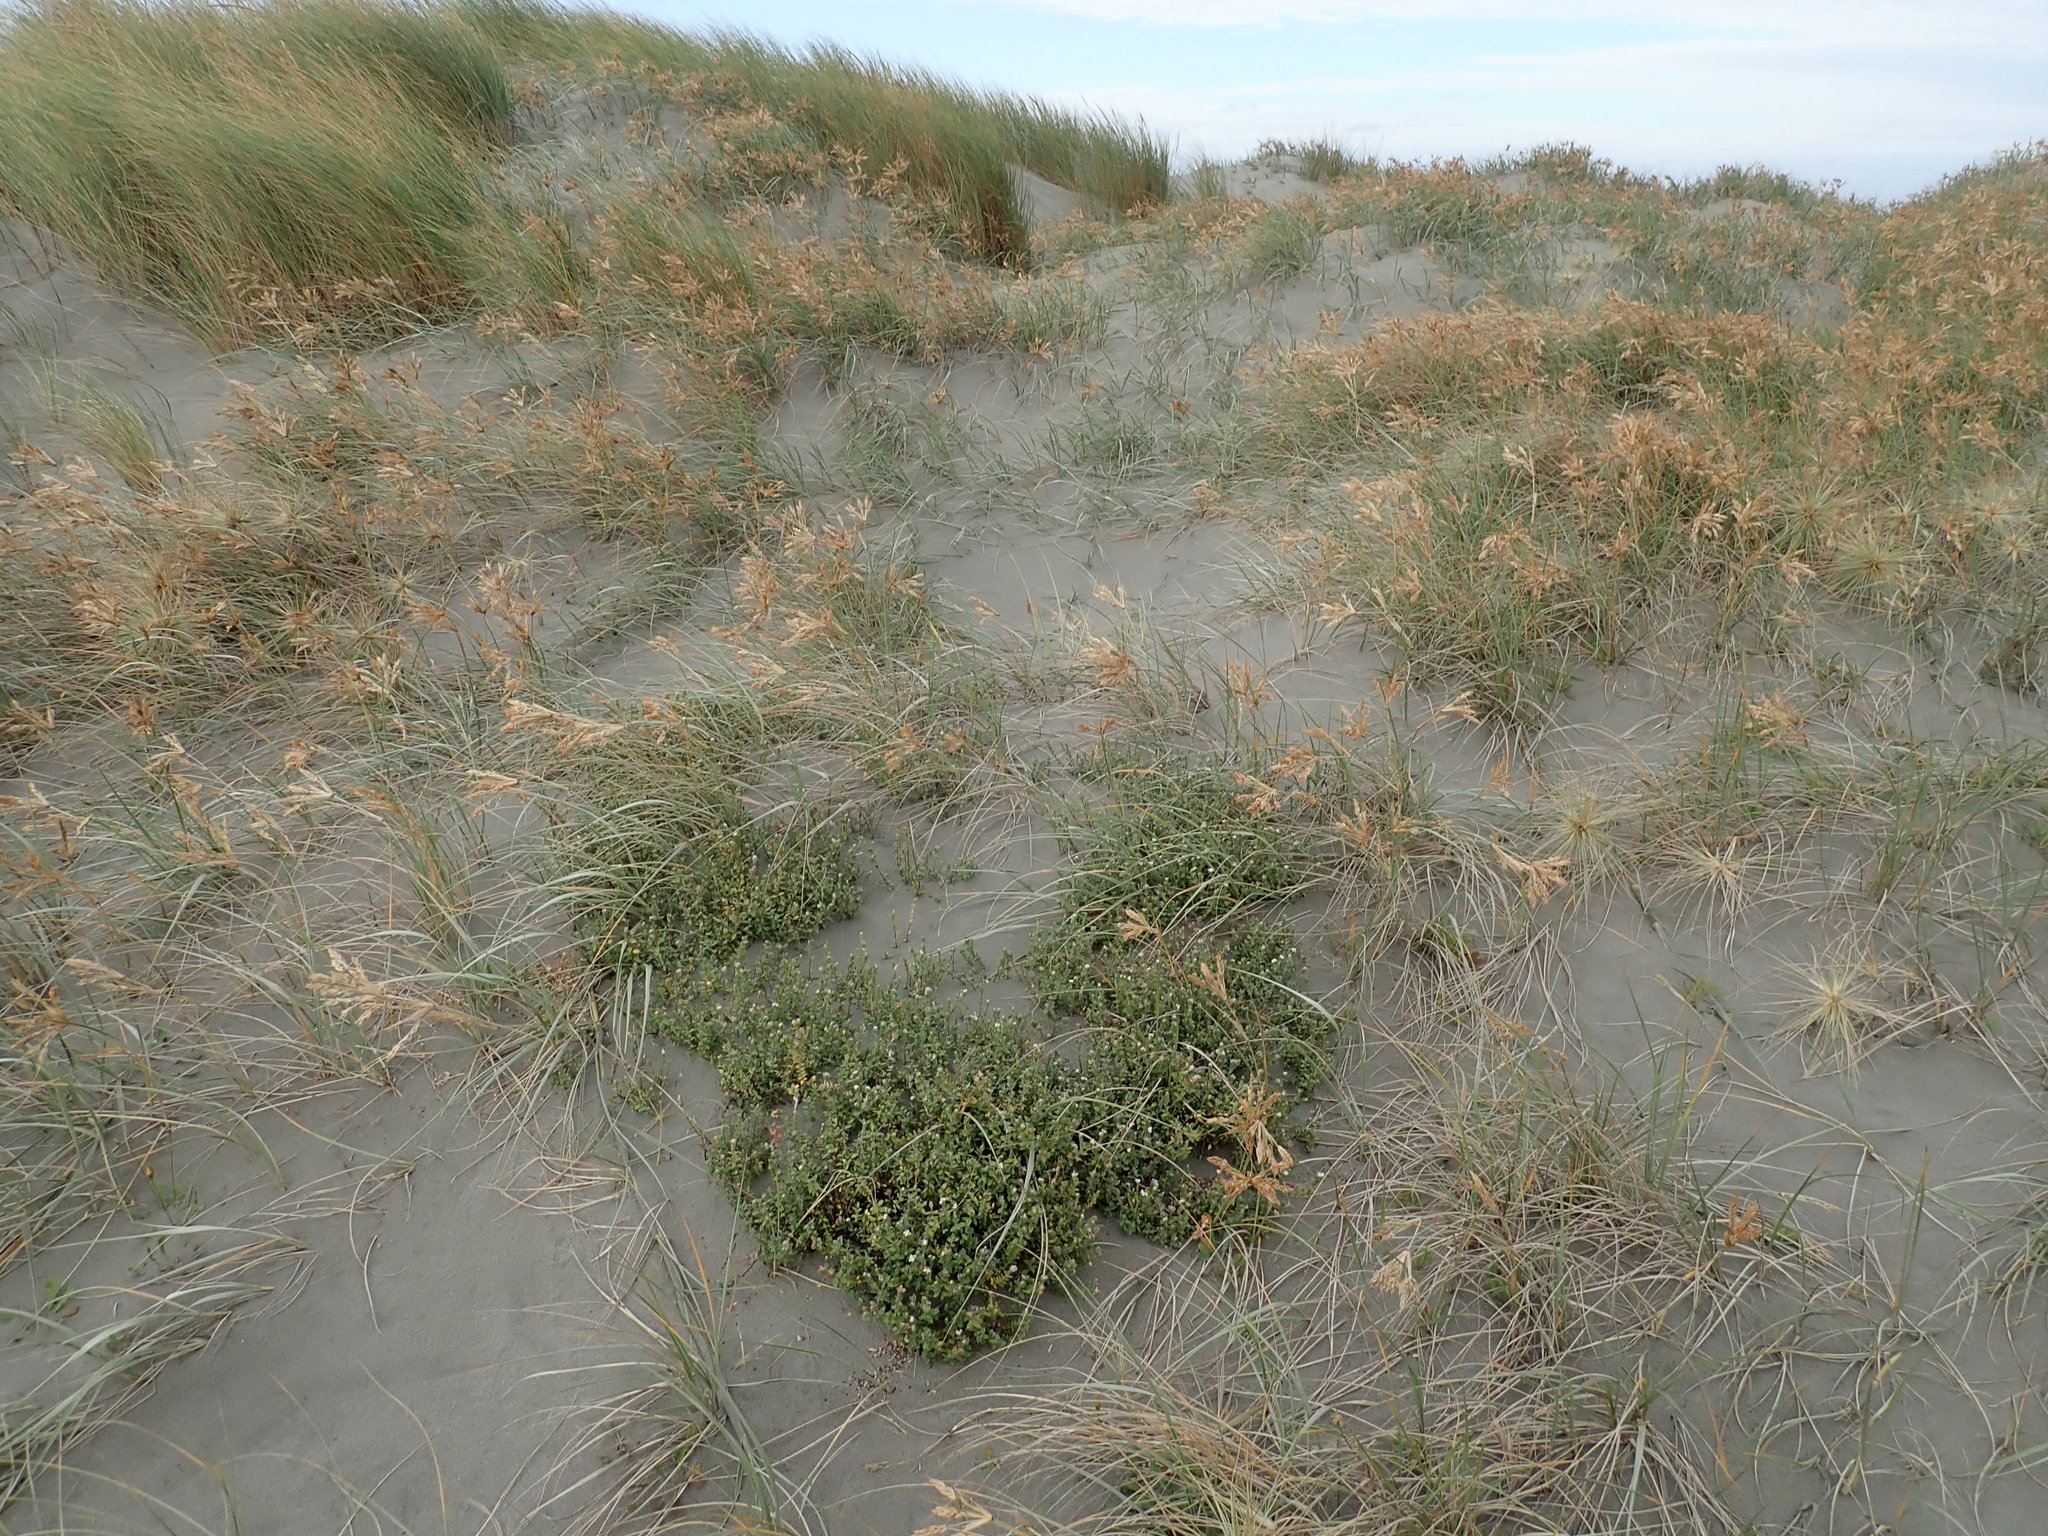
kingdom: Plantae
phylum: Tracheophyta
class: Magnoliopsida
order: Malvales
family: Thymelaeaceae
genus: Pimelea
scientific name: Pimelea villosa
